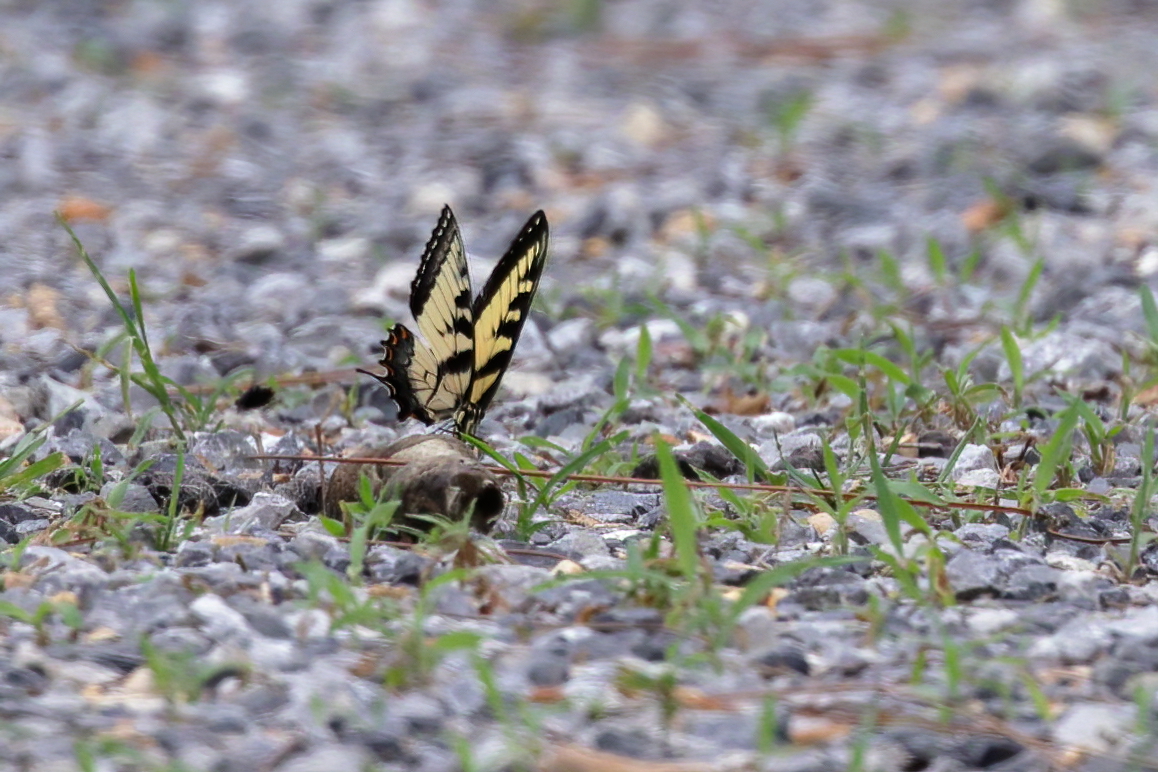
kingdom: Animalia
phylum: Arthropoda
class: Insecta
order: Lepidoptera
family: Papilionidae
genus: Papilio
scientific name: Papilio glaucus
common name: Tiger swallowtail
